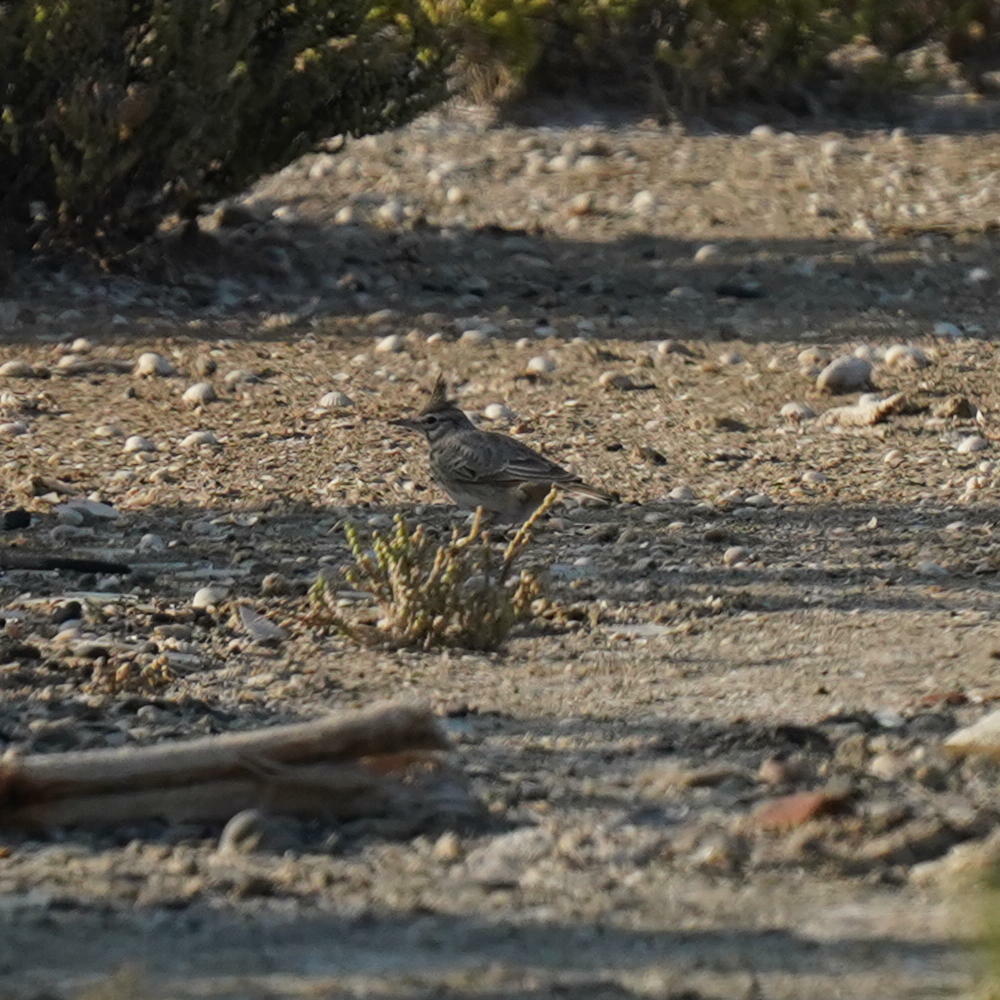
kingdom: Animalia
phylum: Chordata
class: Aves
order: Passeriformes
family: Alaudidae
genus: Galerida
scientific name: Galerida cristata
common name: Crested lark
